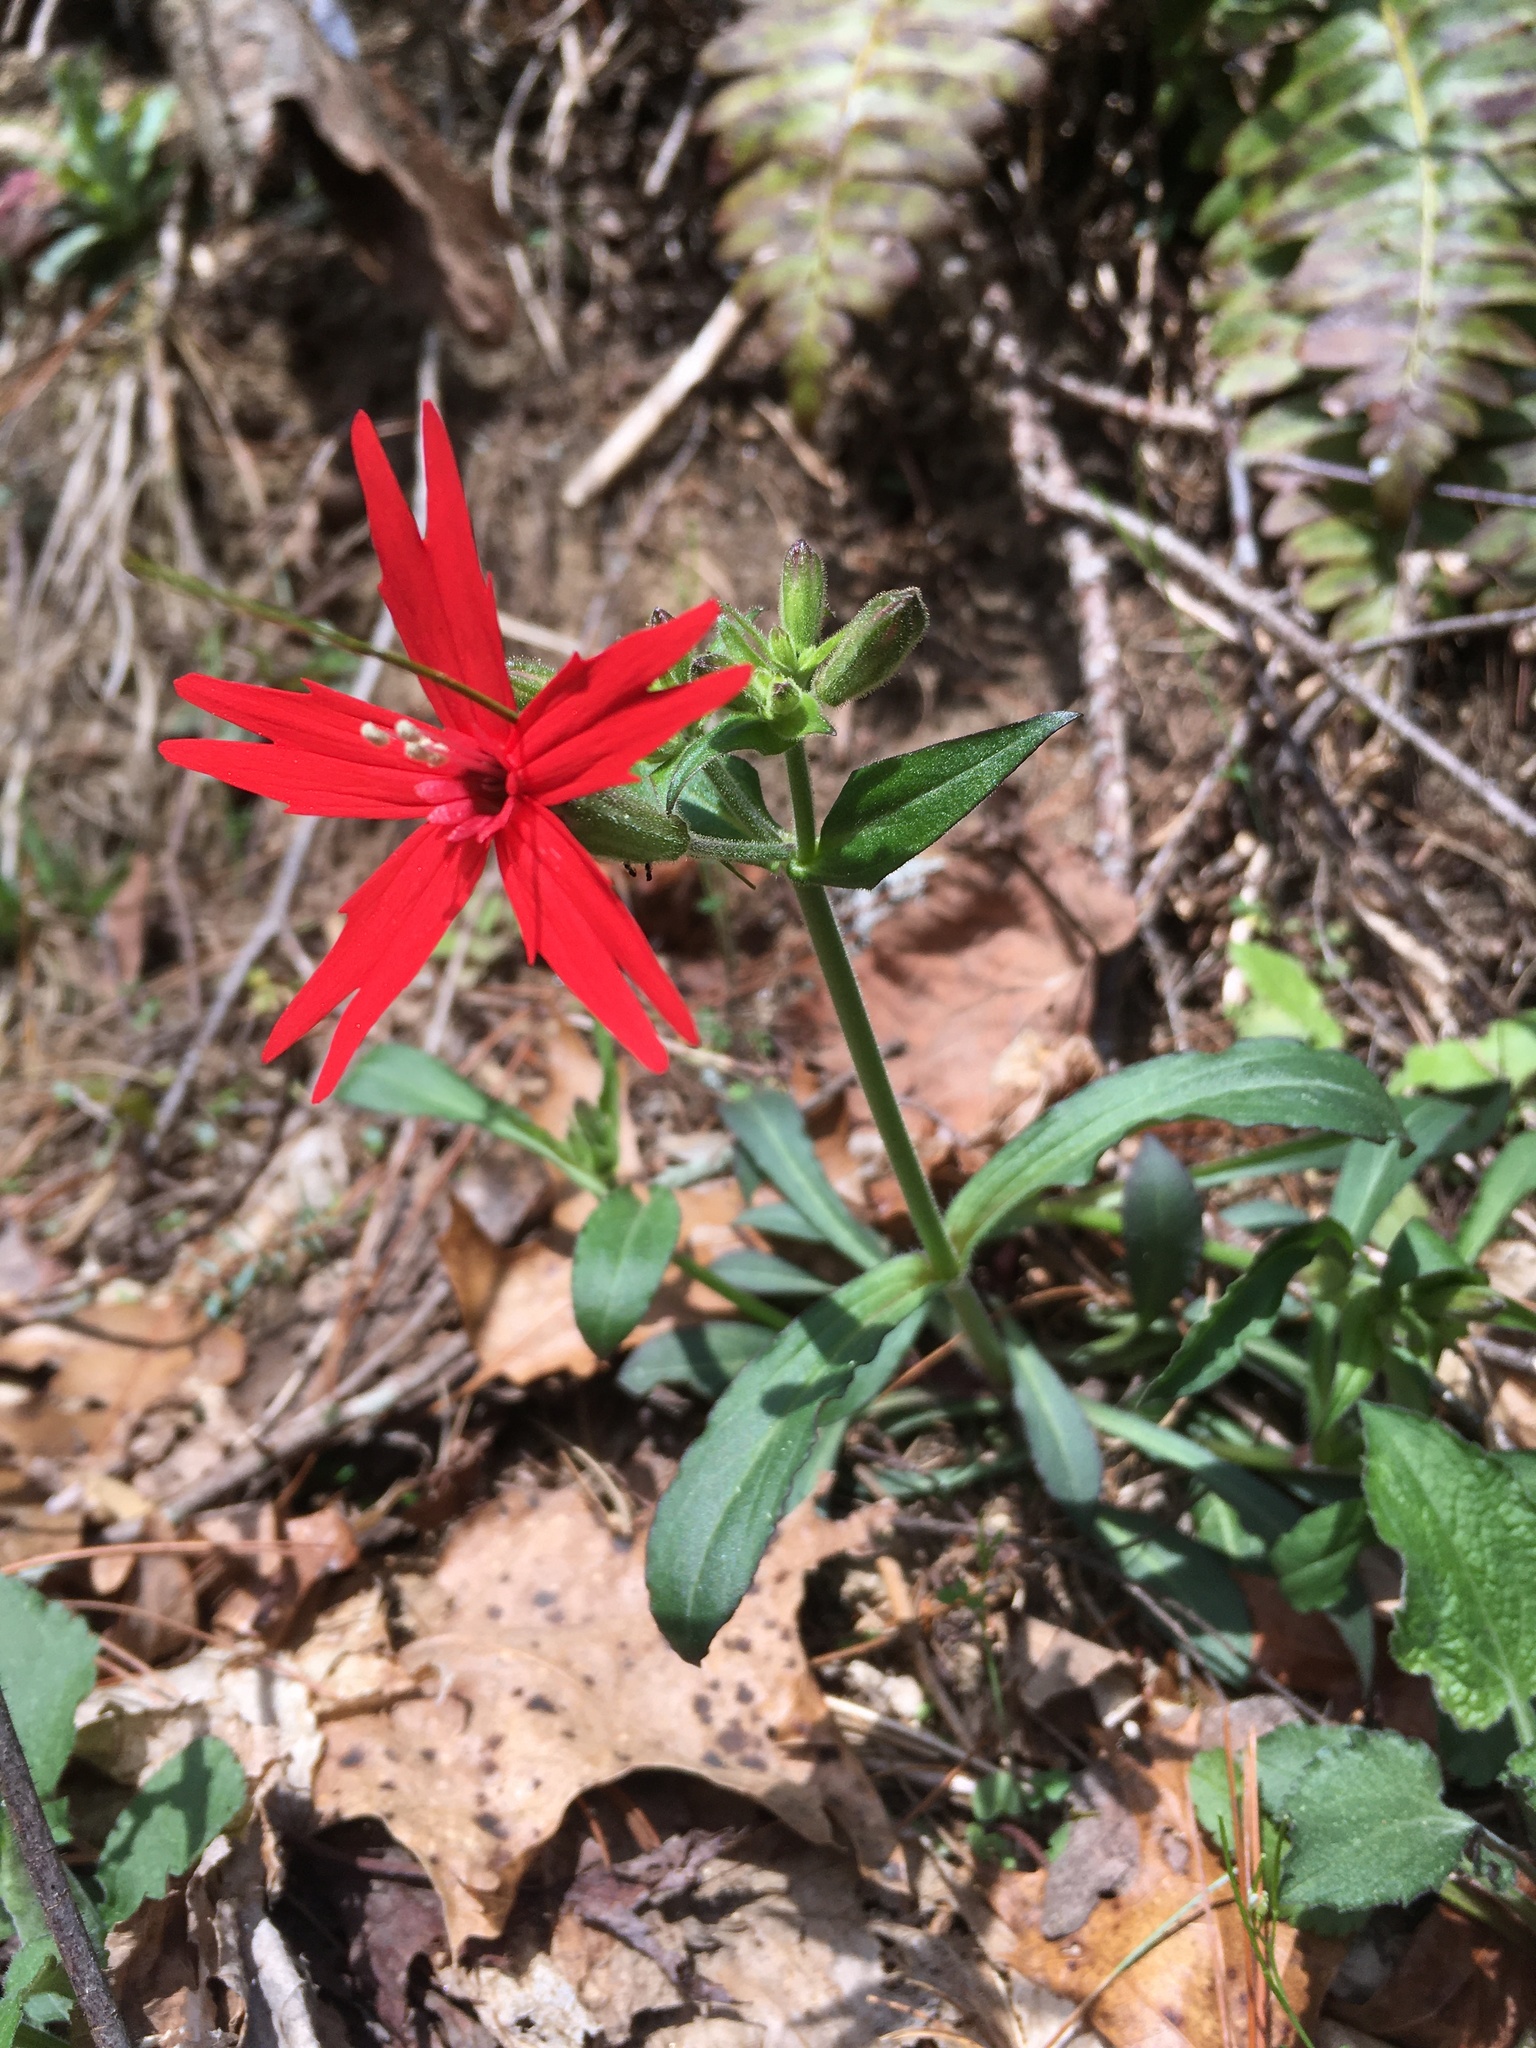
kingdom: Plantae
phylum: Tracheophyta
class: Magnoliopsida
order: Caryophyllales
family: Caryophyllaceae
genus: Silene
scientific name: Silene virginica
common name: Fire-pink
